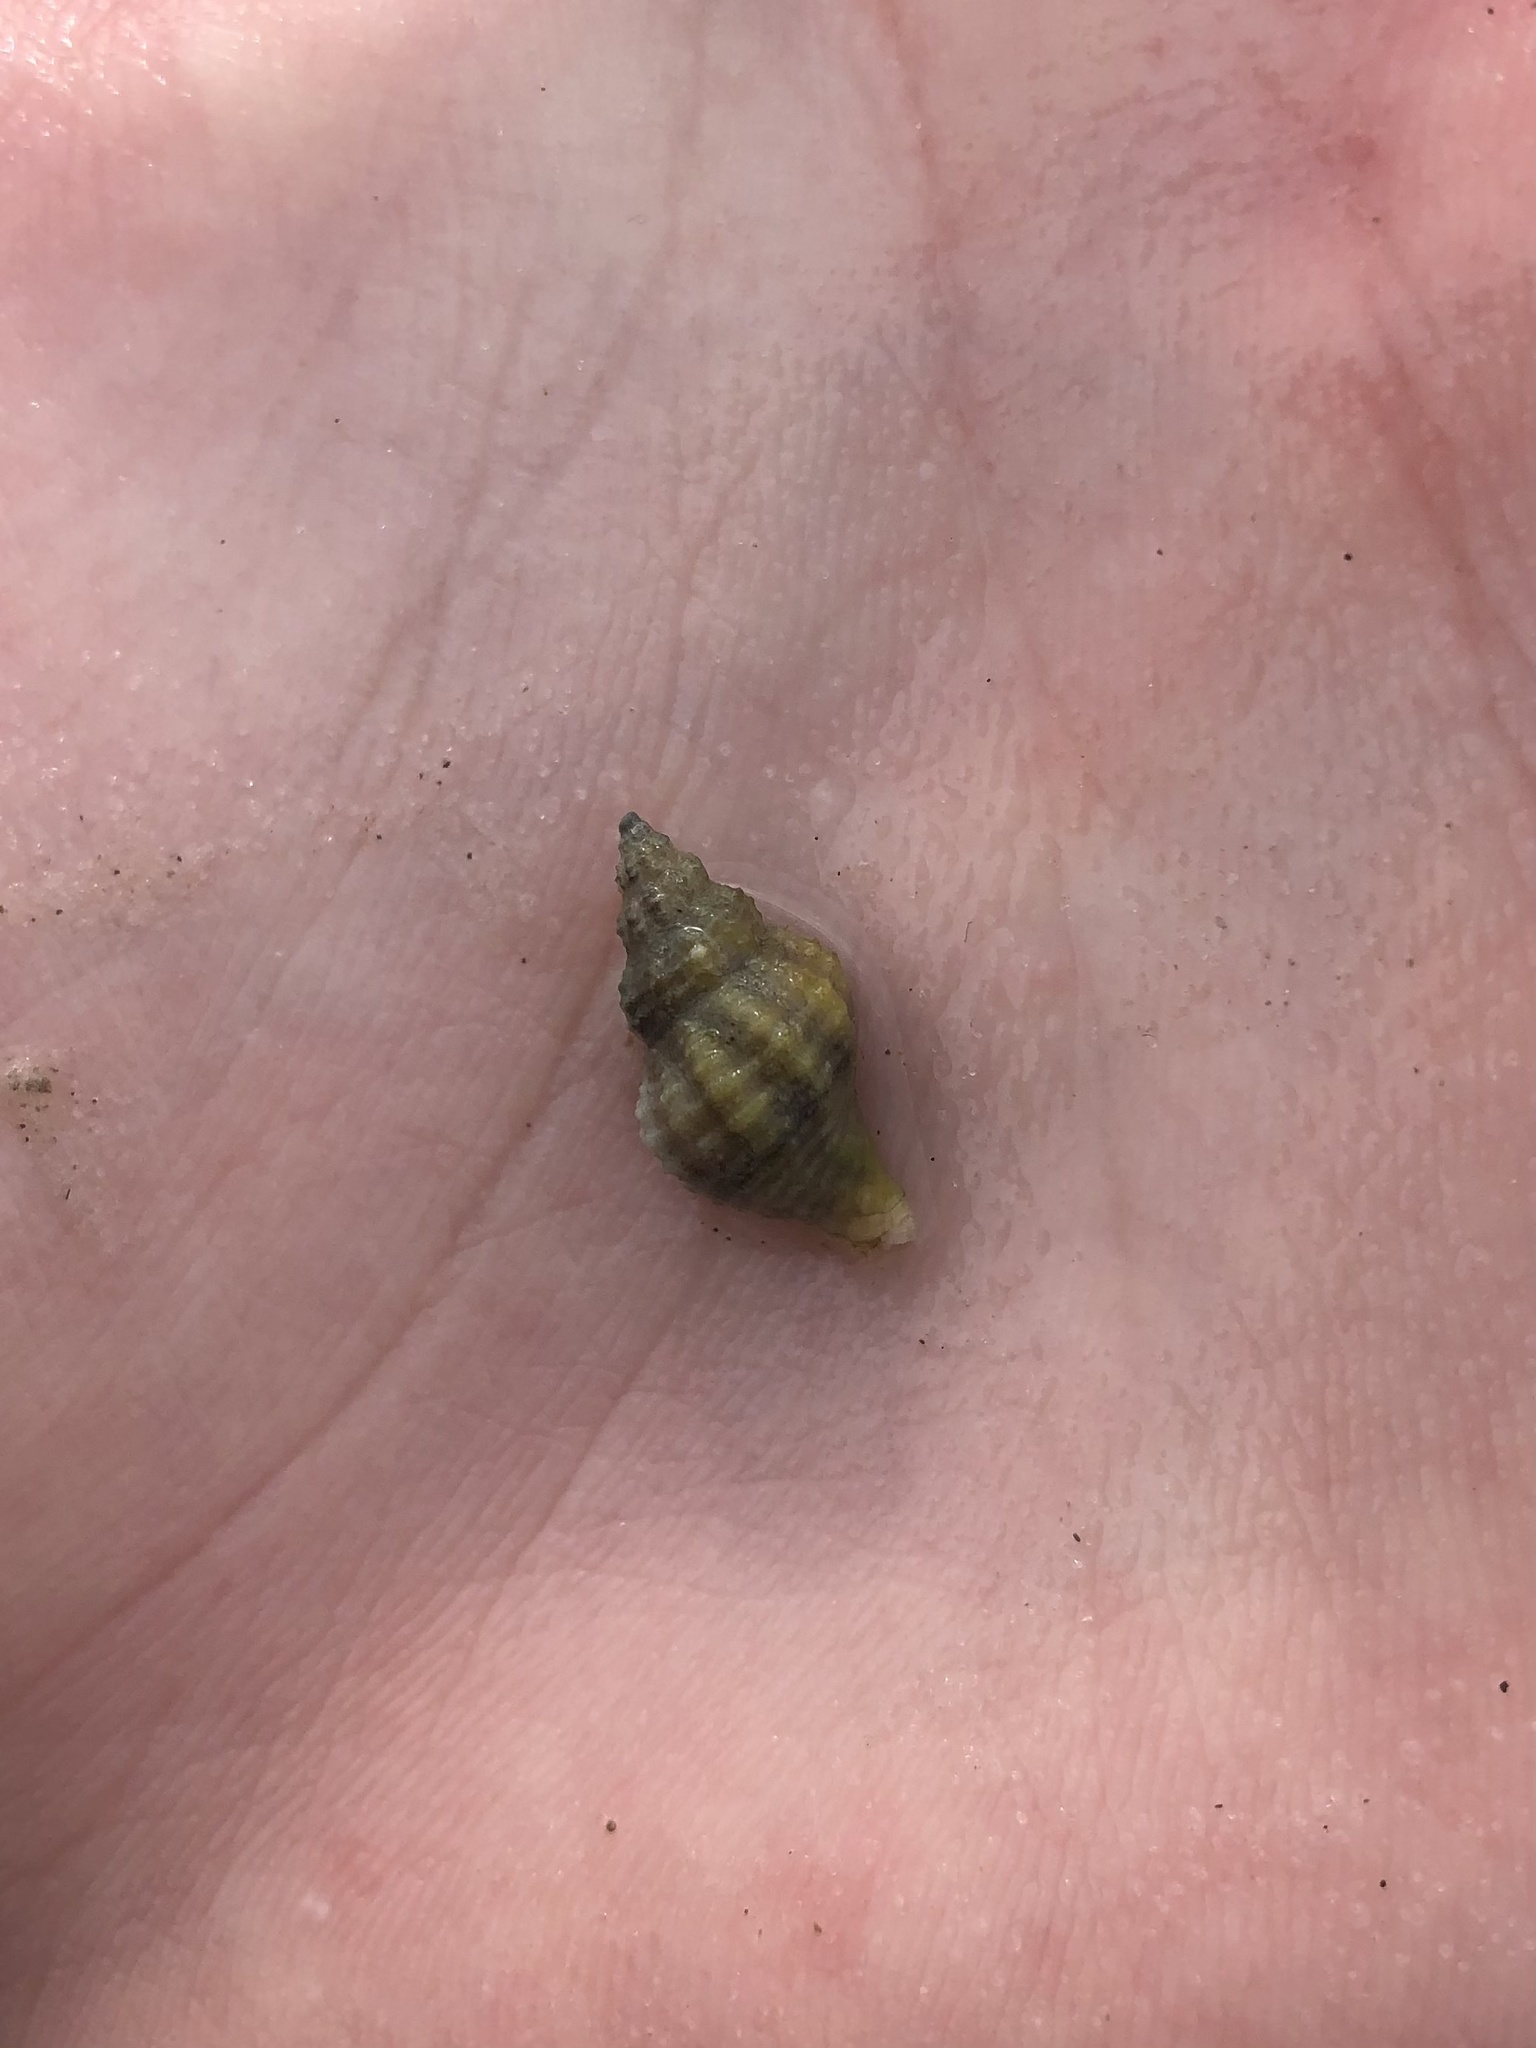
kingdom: Animalia
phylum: Mollusca
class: Gastropoda
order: Neogastropoda
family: Muricidae
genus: Urosalpinx
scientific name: Urosalpinx cinerea
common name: American sting winkle
